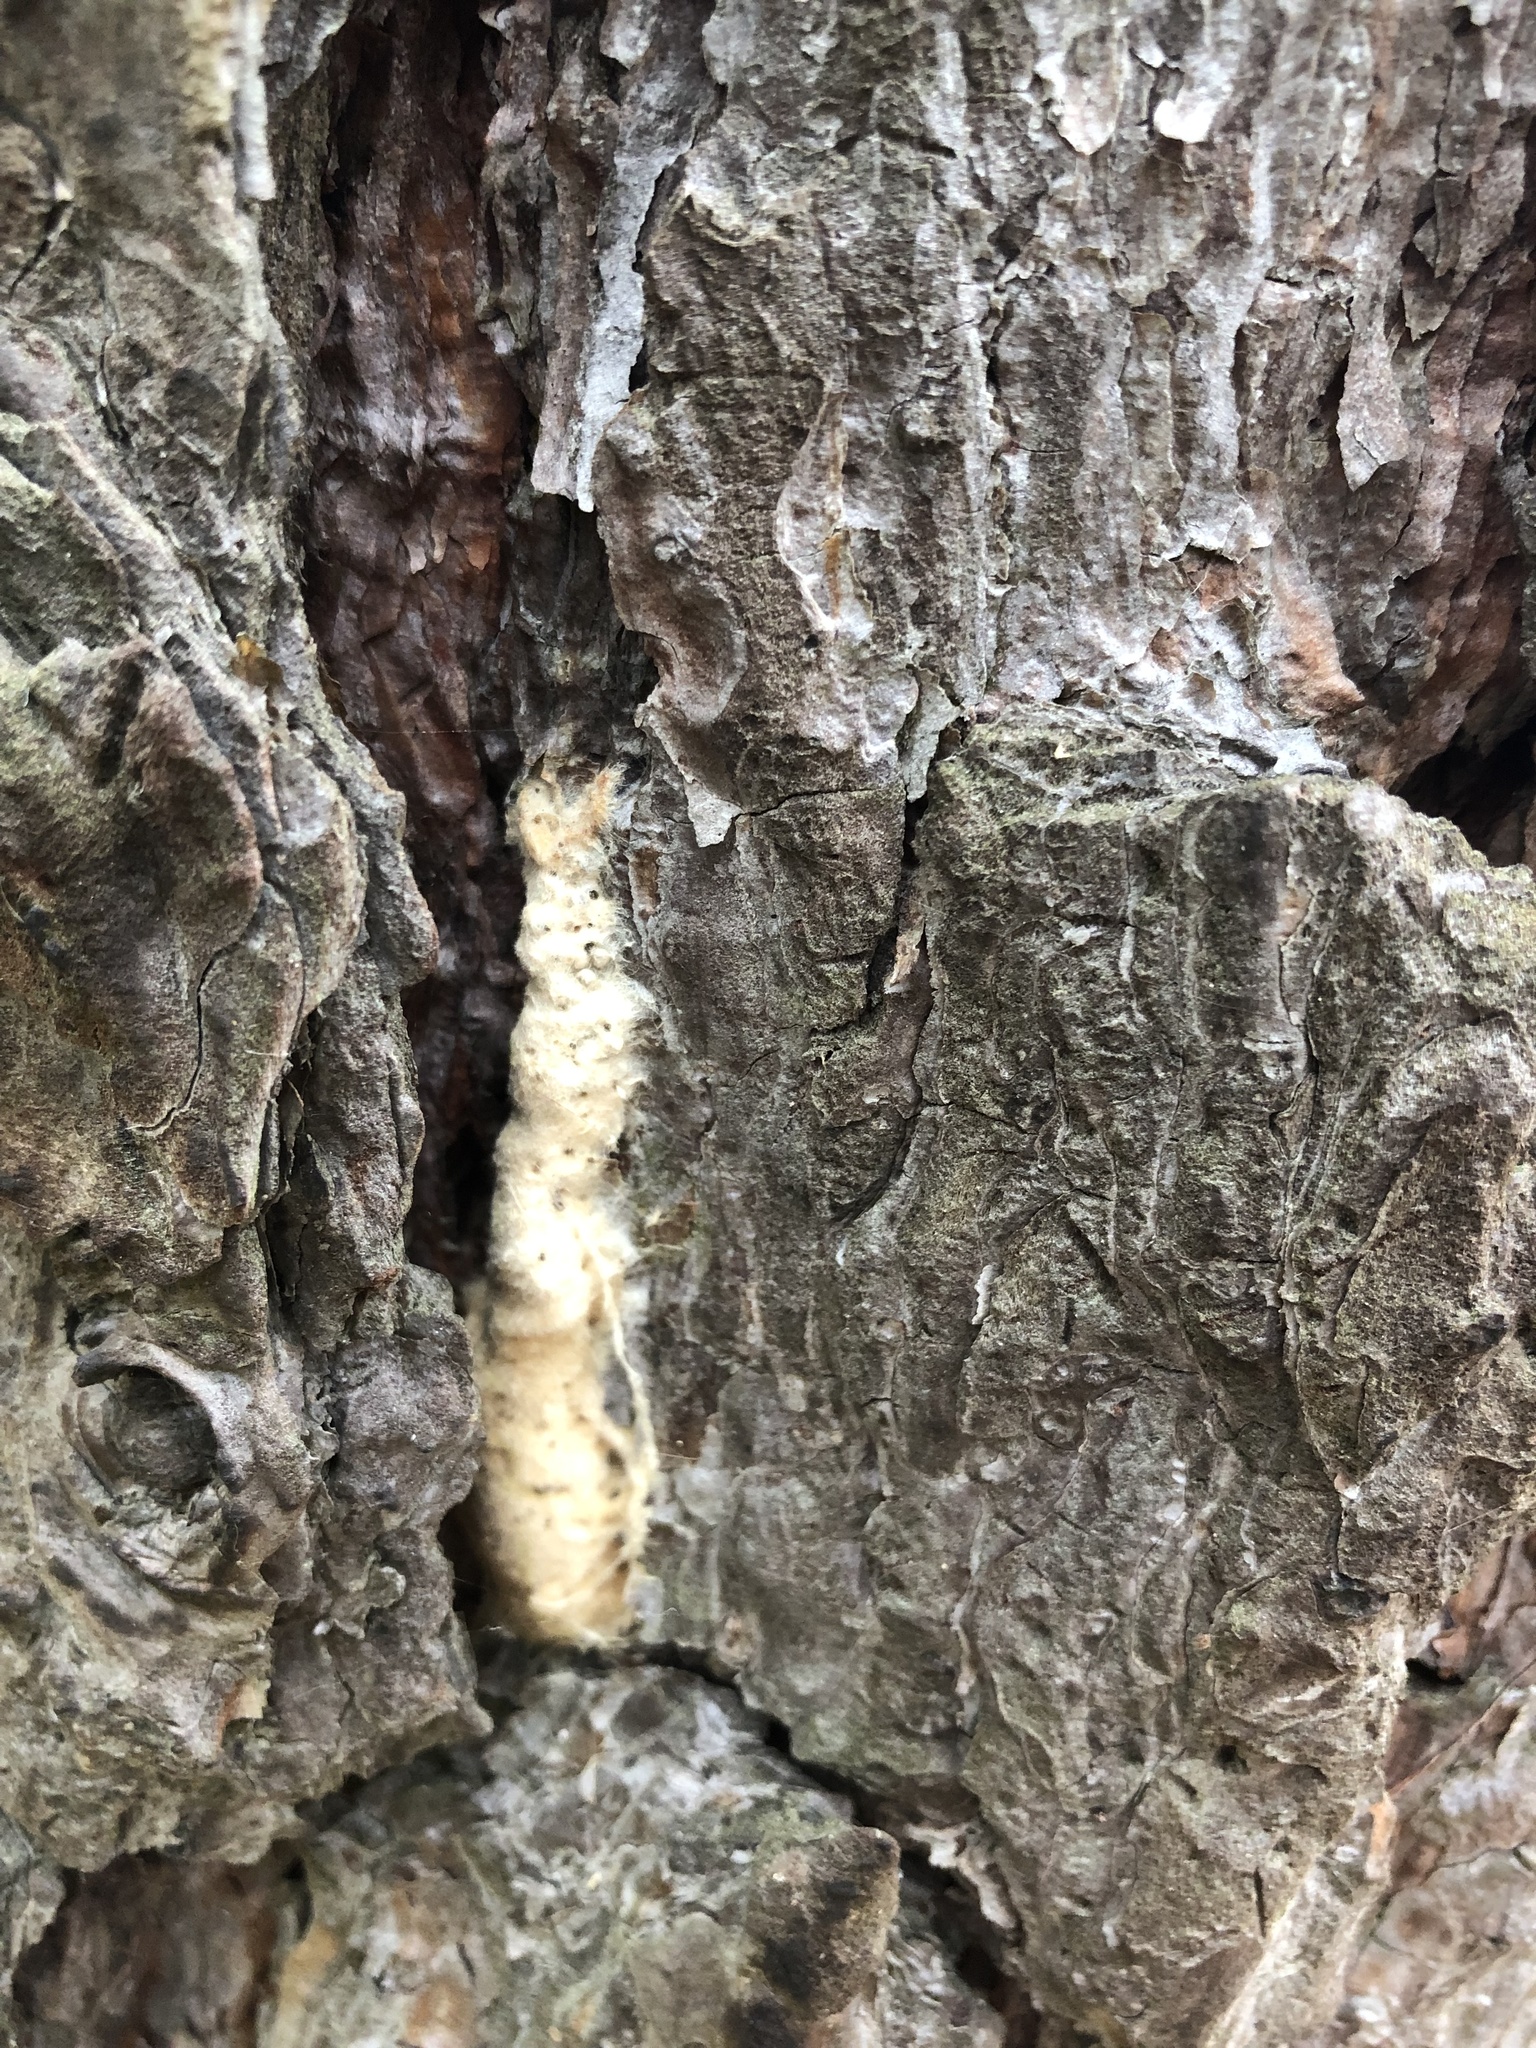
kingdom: Animalia
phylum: Arthropoda
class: Insecta
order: Lepidoptera
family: Erebidae
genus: Lymantria
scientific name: Lymantria dispar
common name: Gypsy moth
